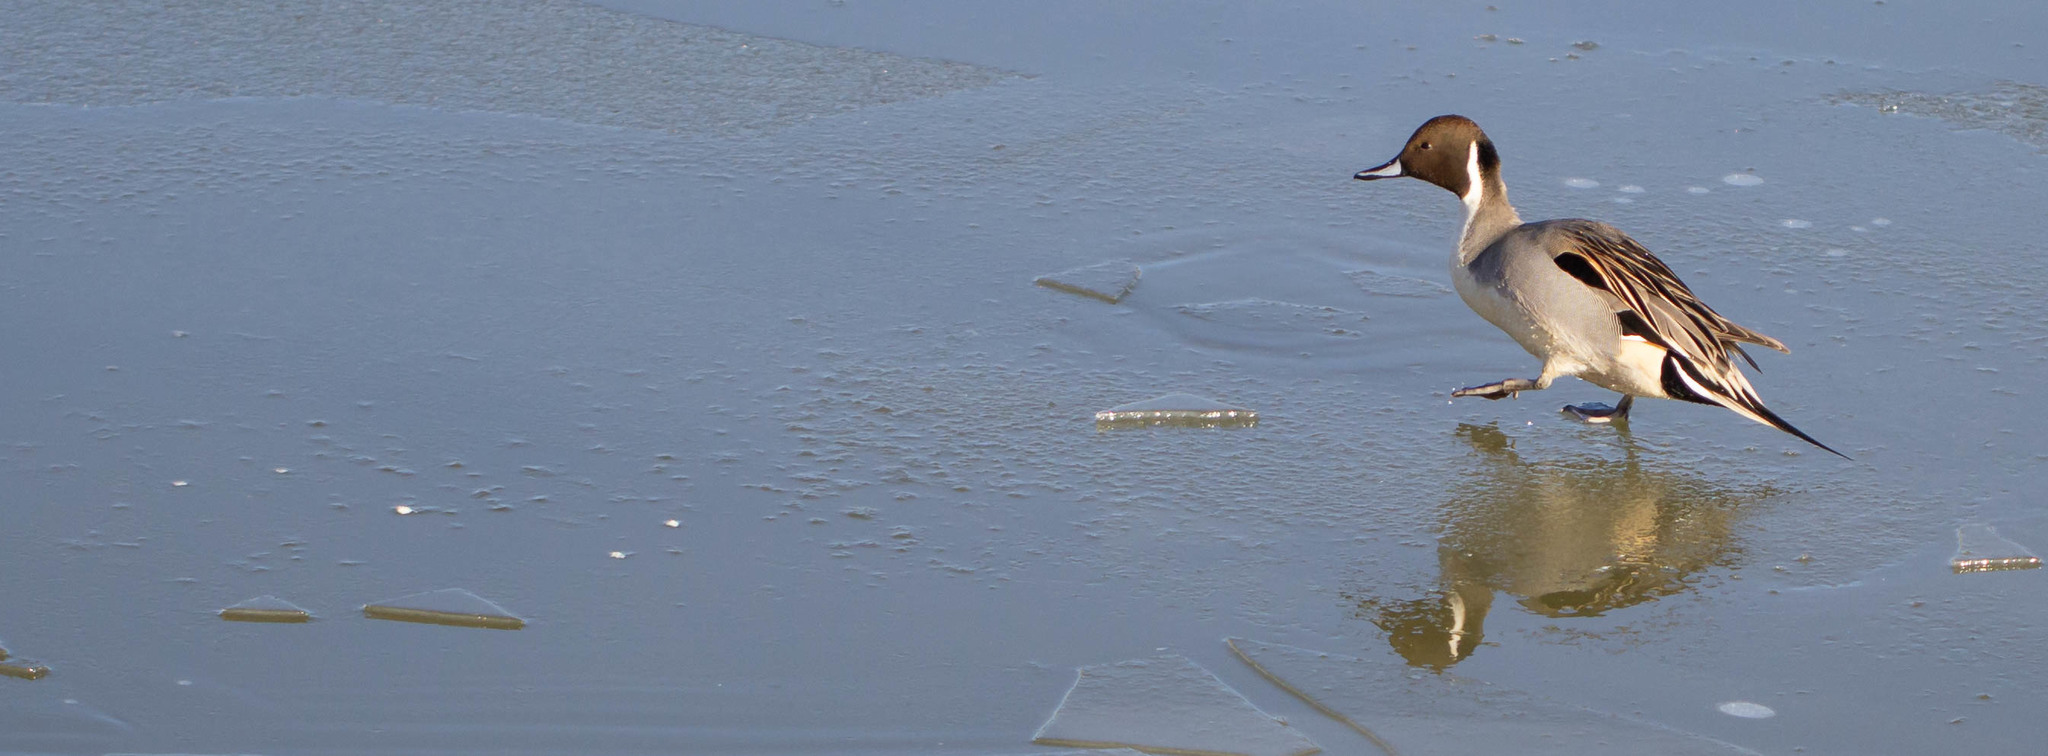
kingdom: Animalia
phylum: Chordata
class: Aves
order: Anseriformes
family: Anatidae
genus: Anas
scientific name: Anas acuta
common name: Northern pintail
